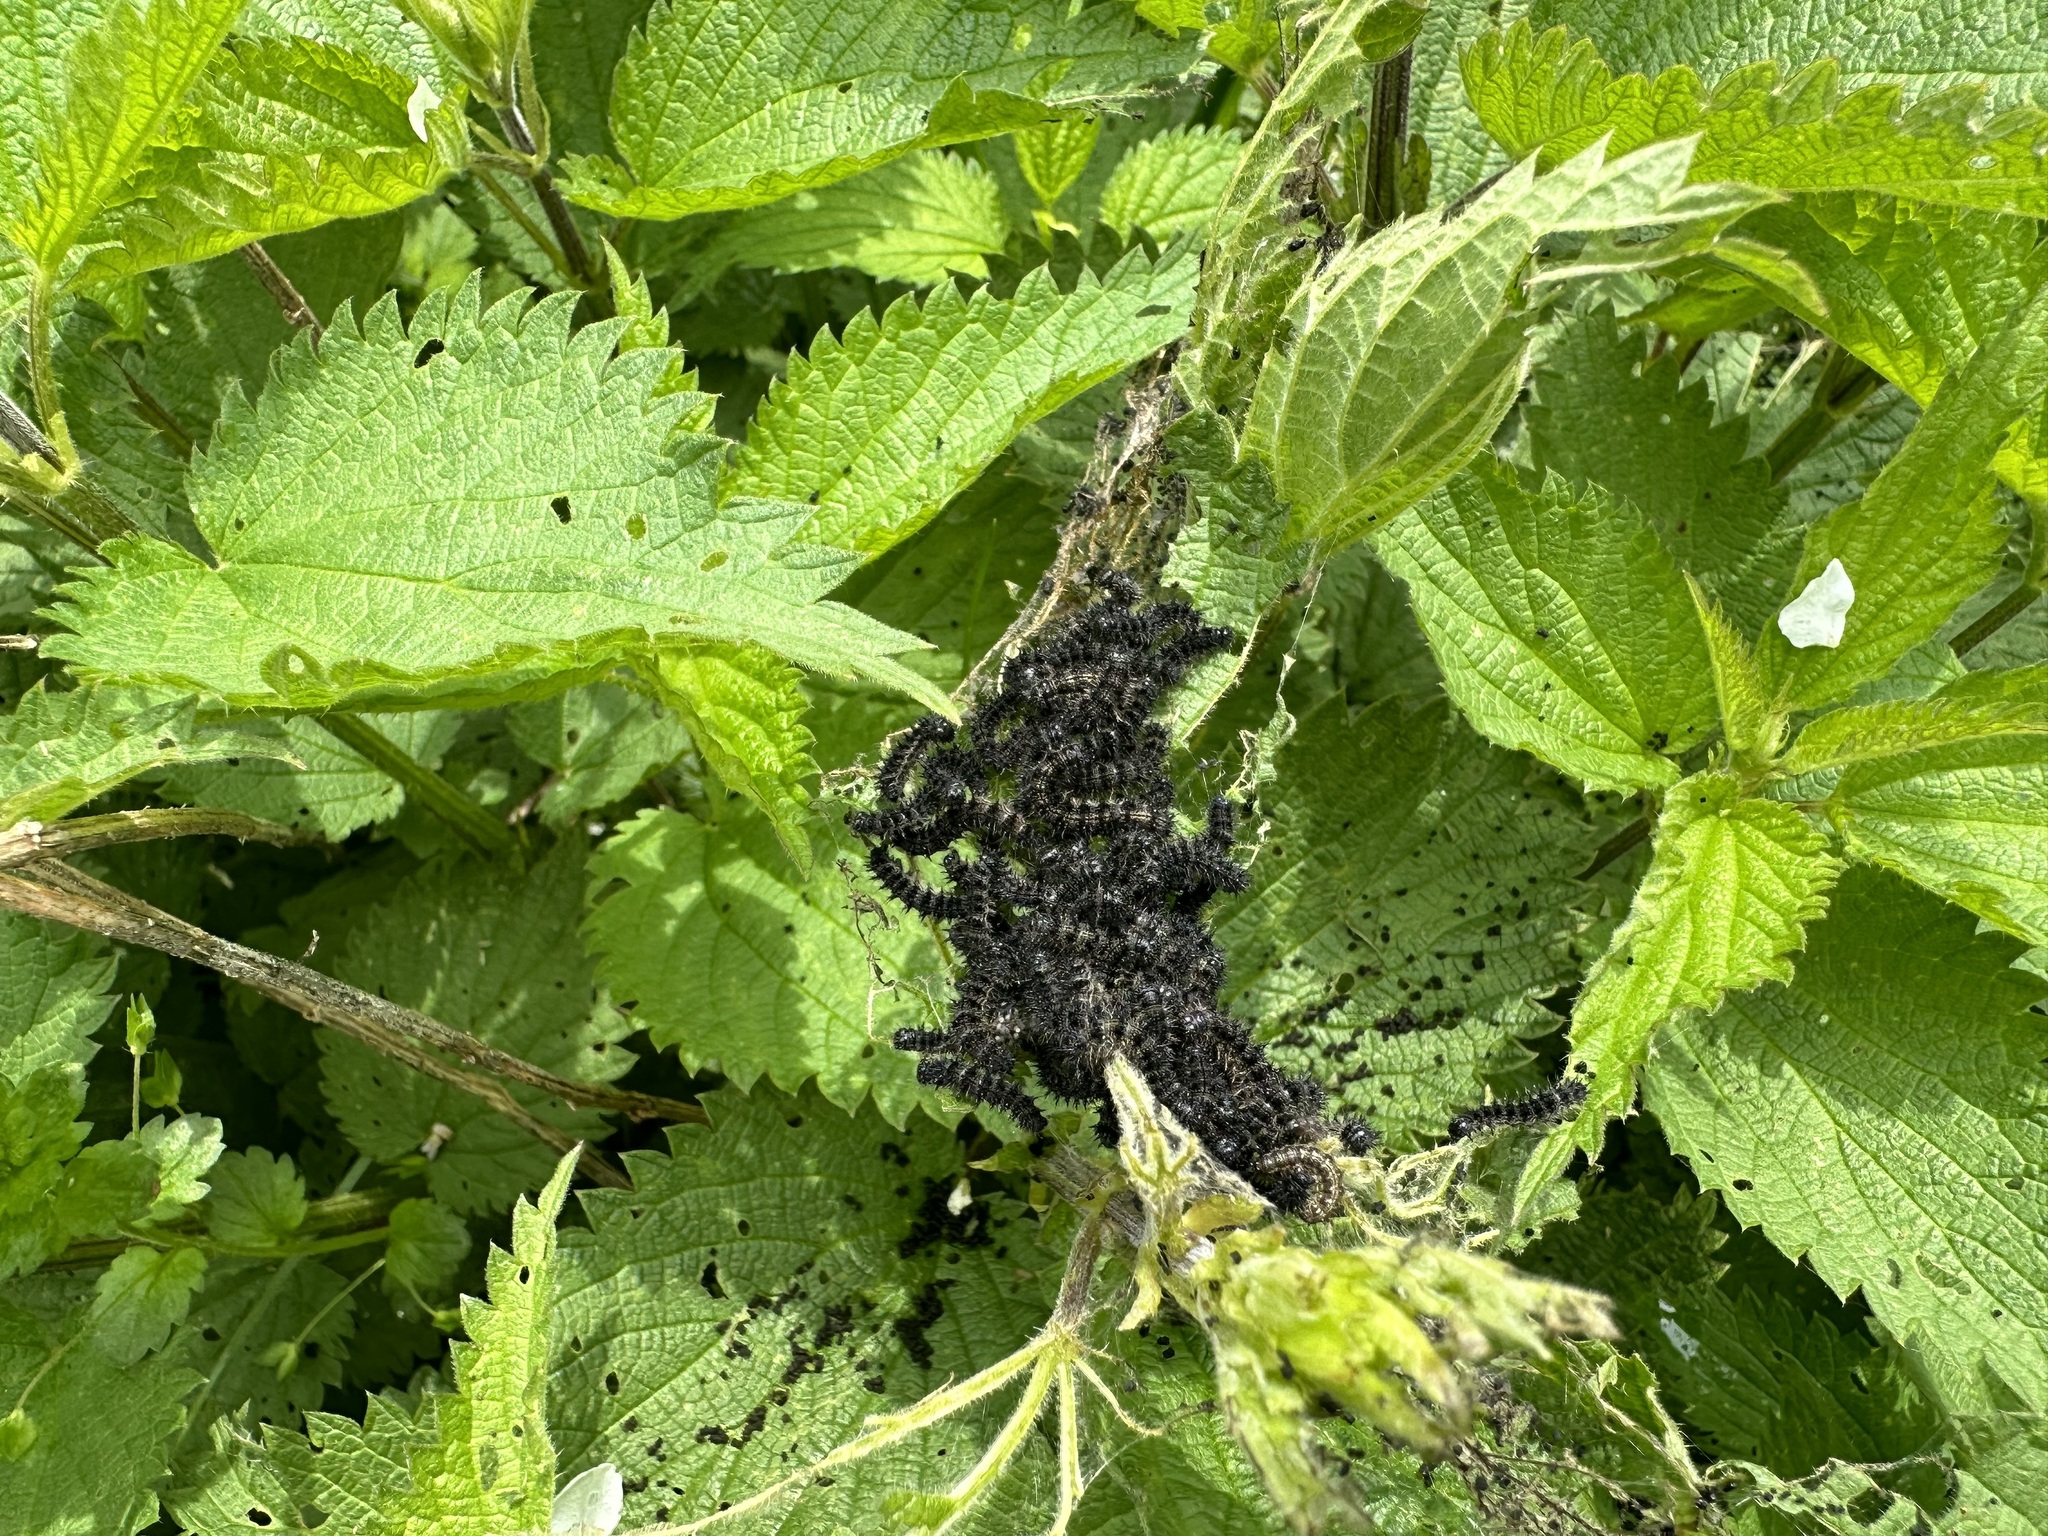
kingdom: Animalia
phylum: Arthropoda
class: Insecta
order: Lepidoptera
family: Nymphalidae
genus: Aglais
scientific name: Aglais urticae
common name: Small tortoiseshell
